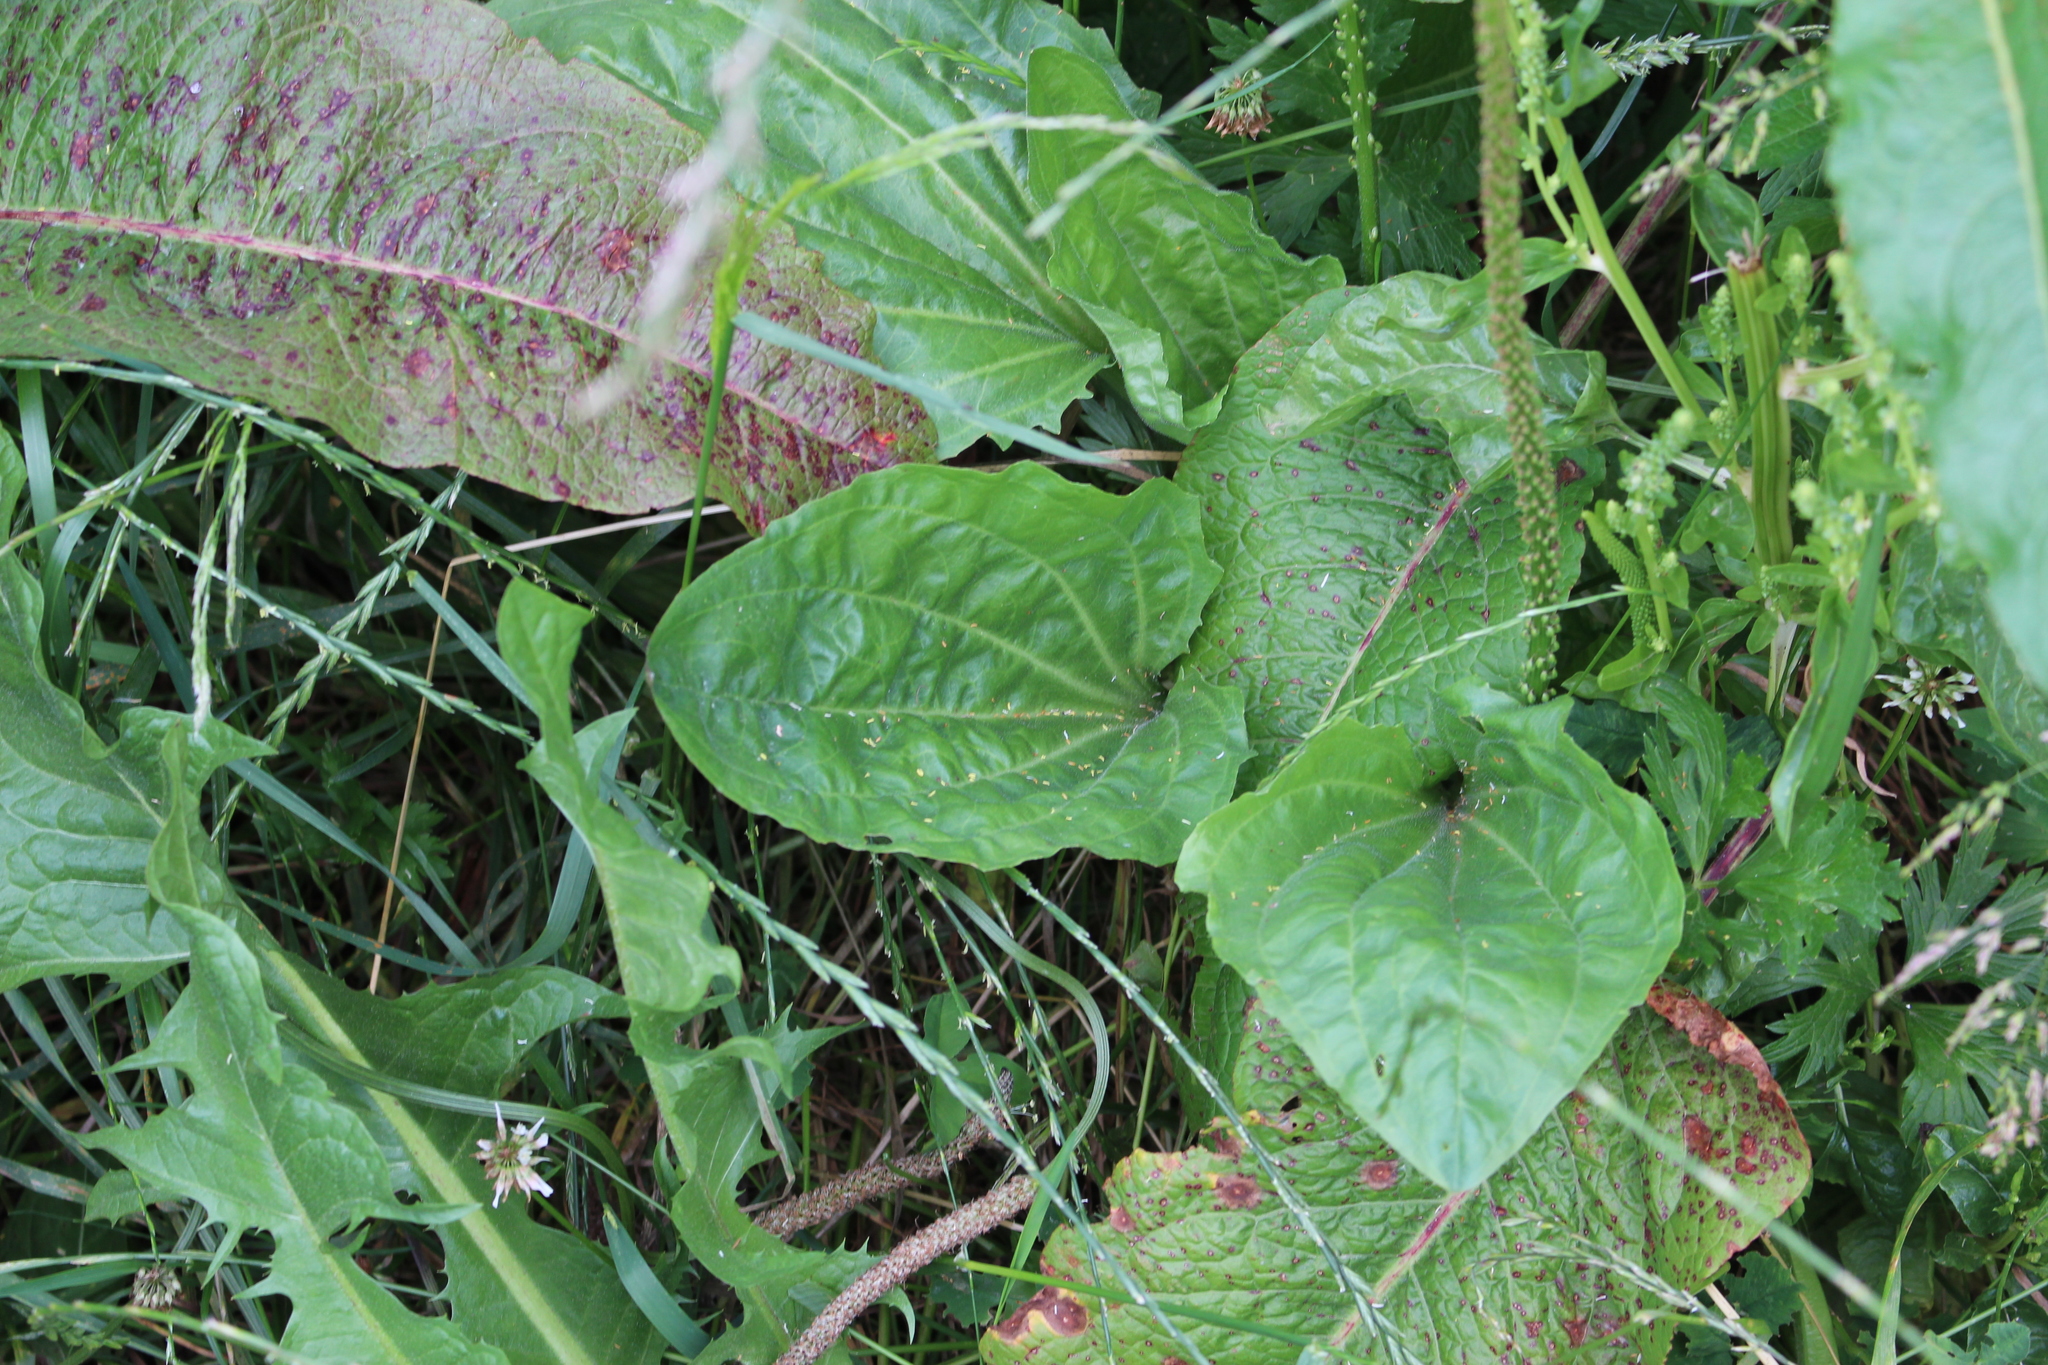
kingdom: Plantae
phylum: Tracheophyta
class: Magnoliopsida
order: Lamiales
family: Plantaginaceae
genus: Plantago
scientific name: Plantago major
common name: Common plantain
